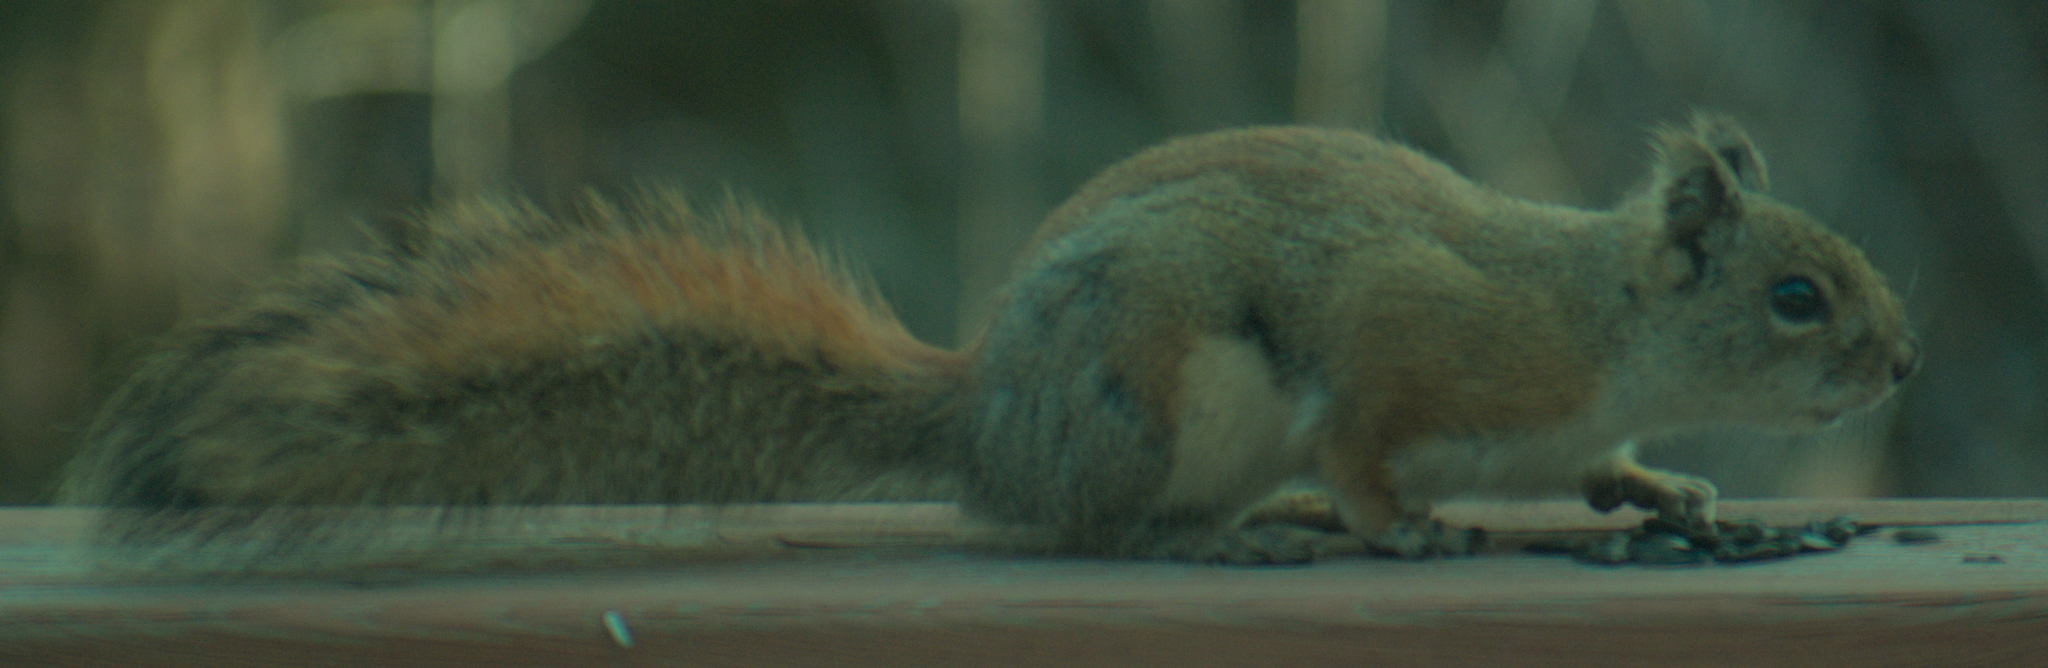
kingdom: Animalia
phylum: Chordata
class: Mammalia
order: Rodentia
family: Sciuridae
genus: Tamiasciurus
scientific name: Tamiasciurus hudsonicus
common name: Red squirrel
